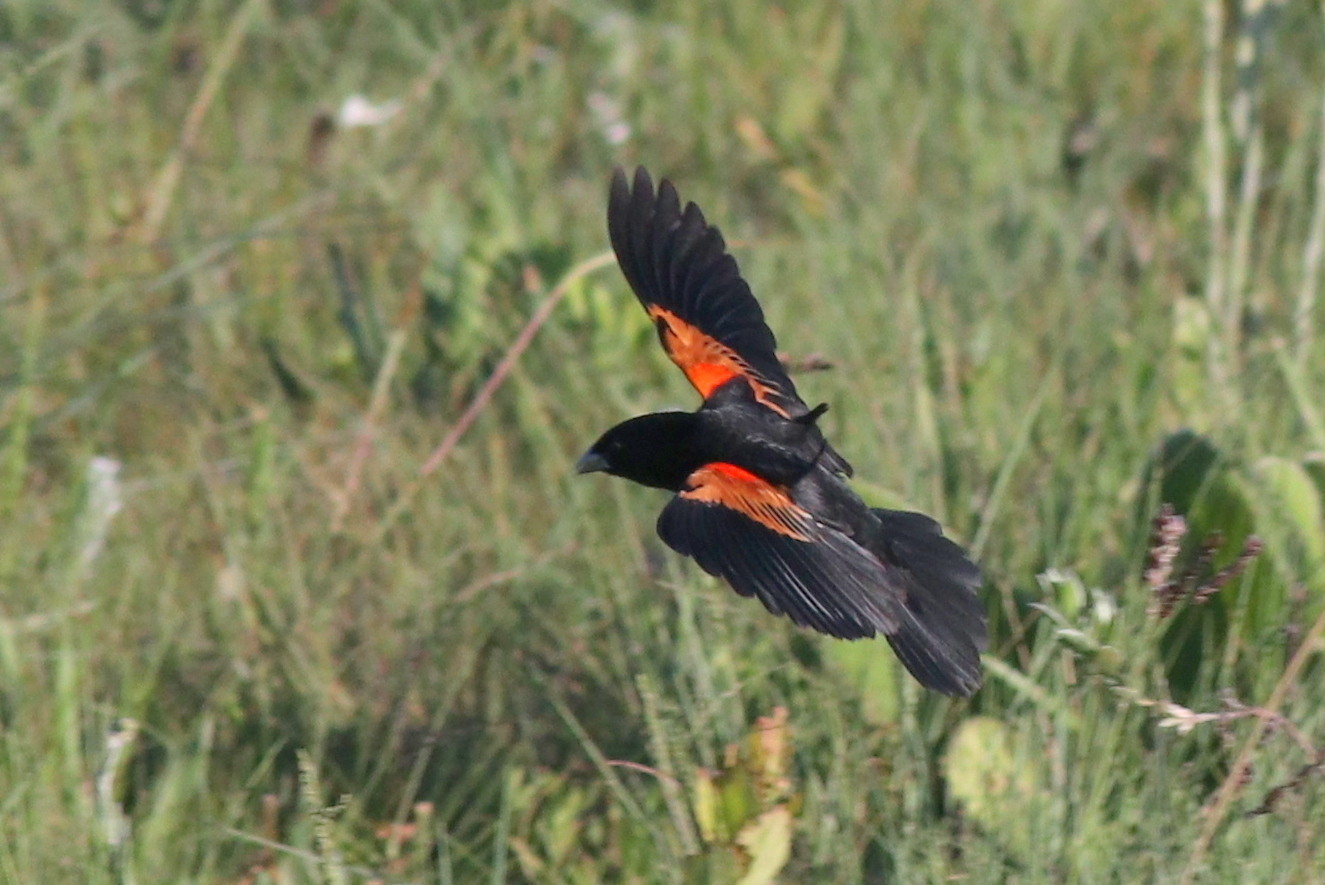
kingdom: Animalia
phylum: Chordata
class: Aves
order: Passeriformes
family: Ploceidae
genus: Euplectes
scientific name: Euplectes axillaris
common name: Fan-tailed widowbird
